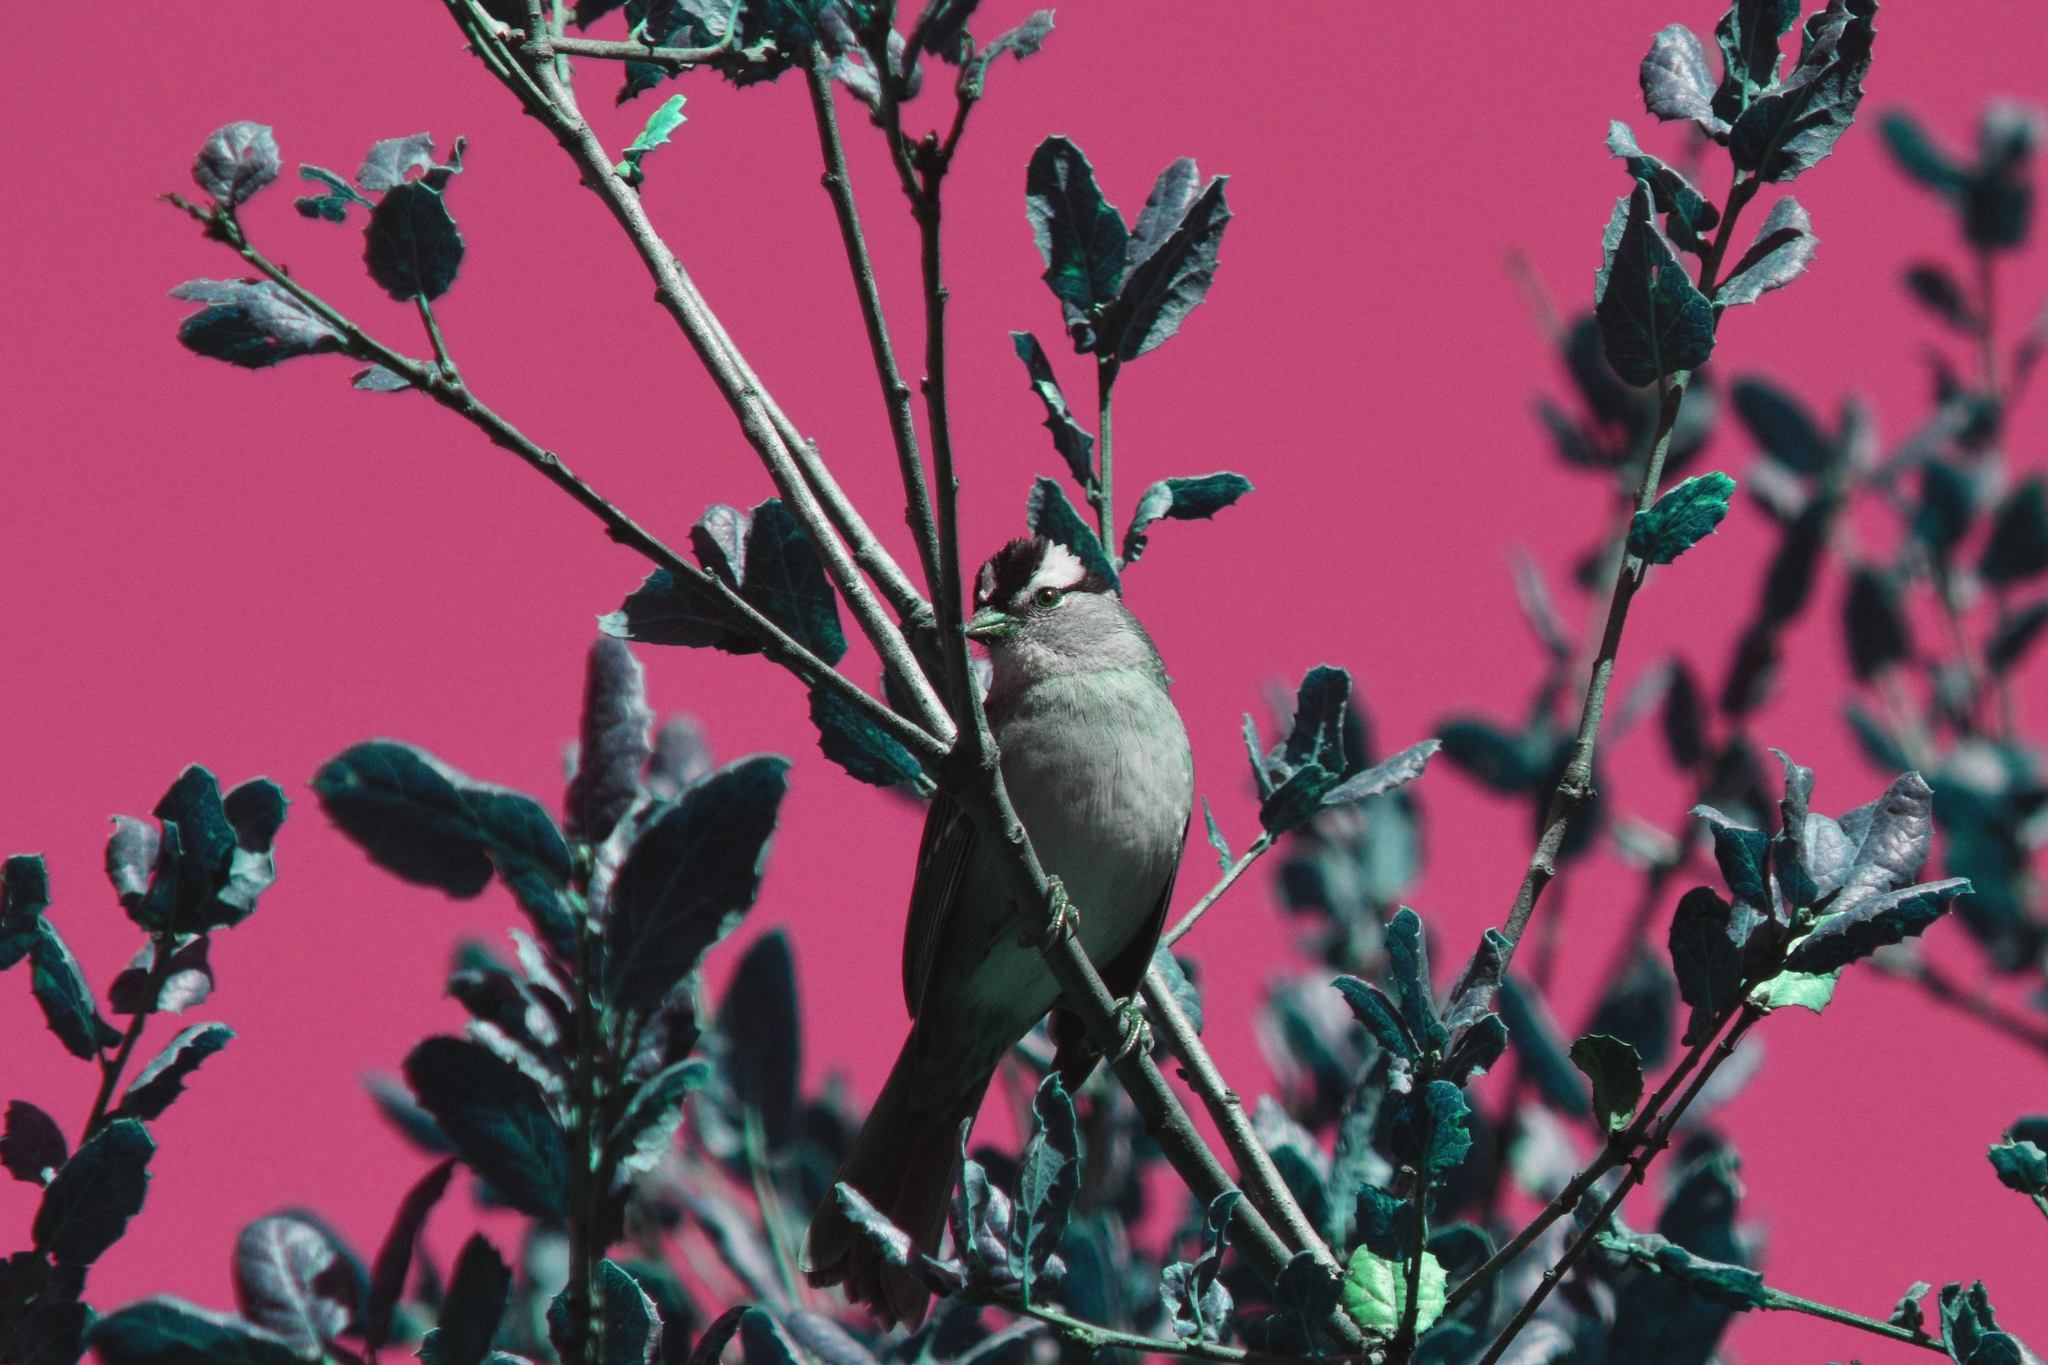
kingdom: Animalia
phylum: Chordata
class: Aves
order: Passeriformes
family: Passerellidae
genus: Zonotrichia
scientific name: Zonotrichia leucophrys
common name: White-crowned sparrow
